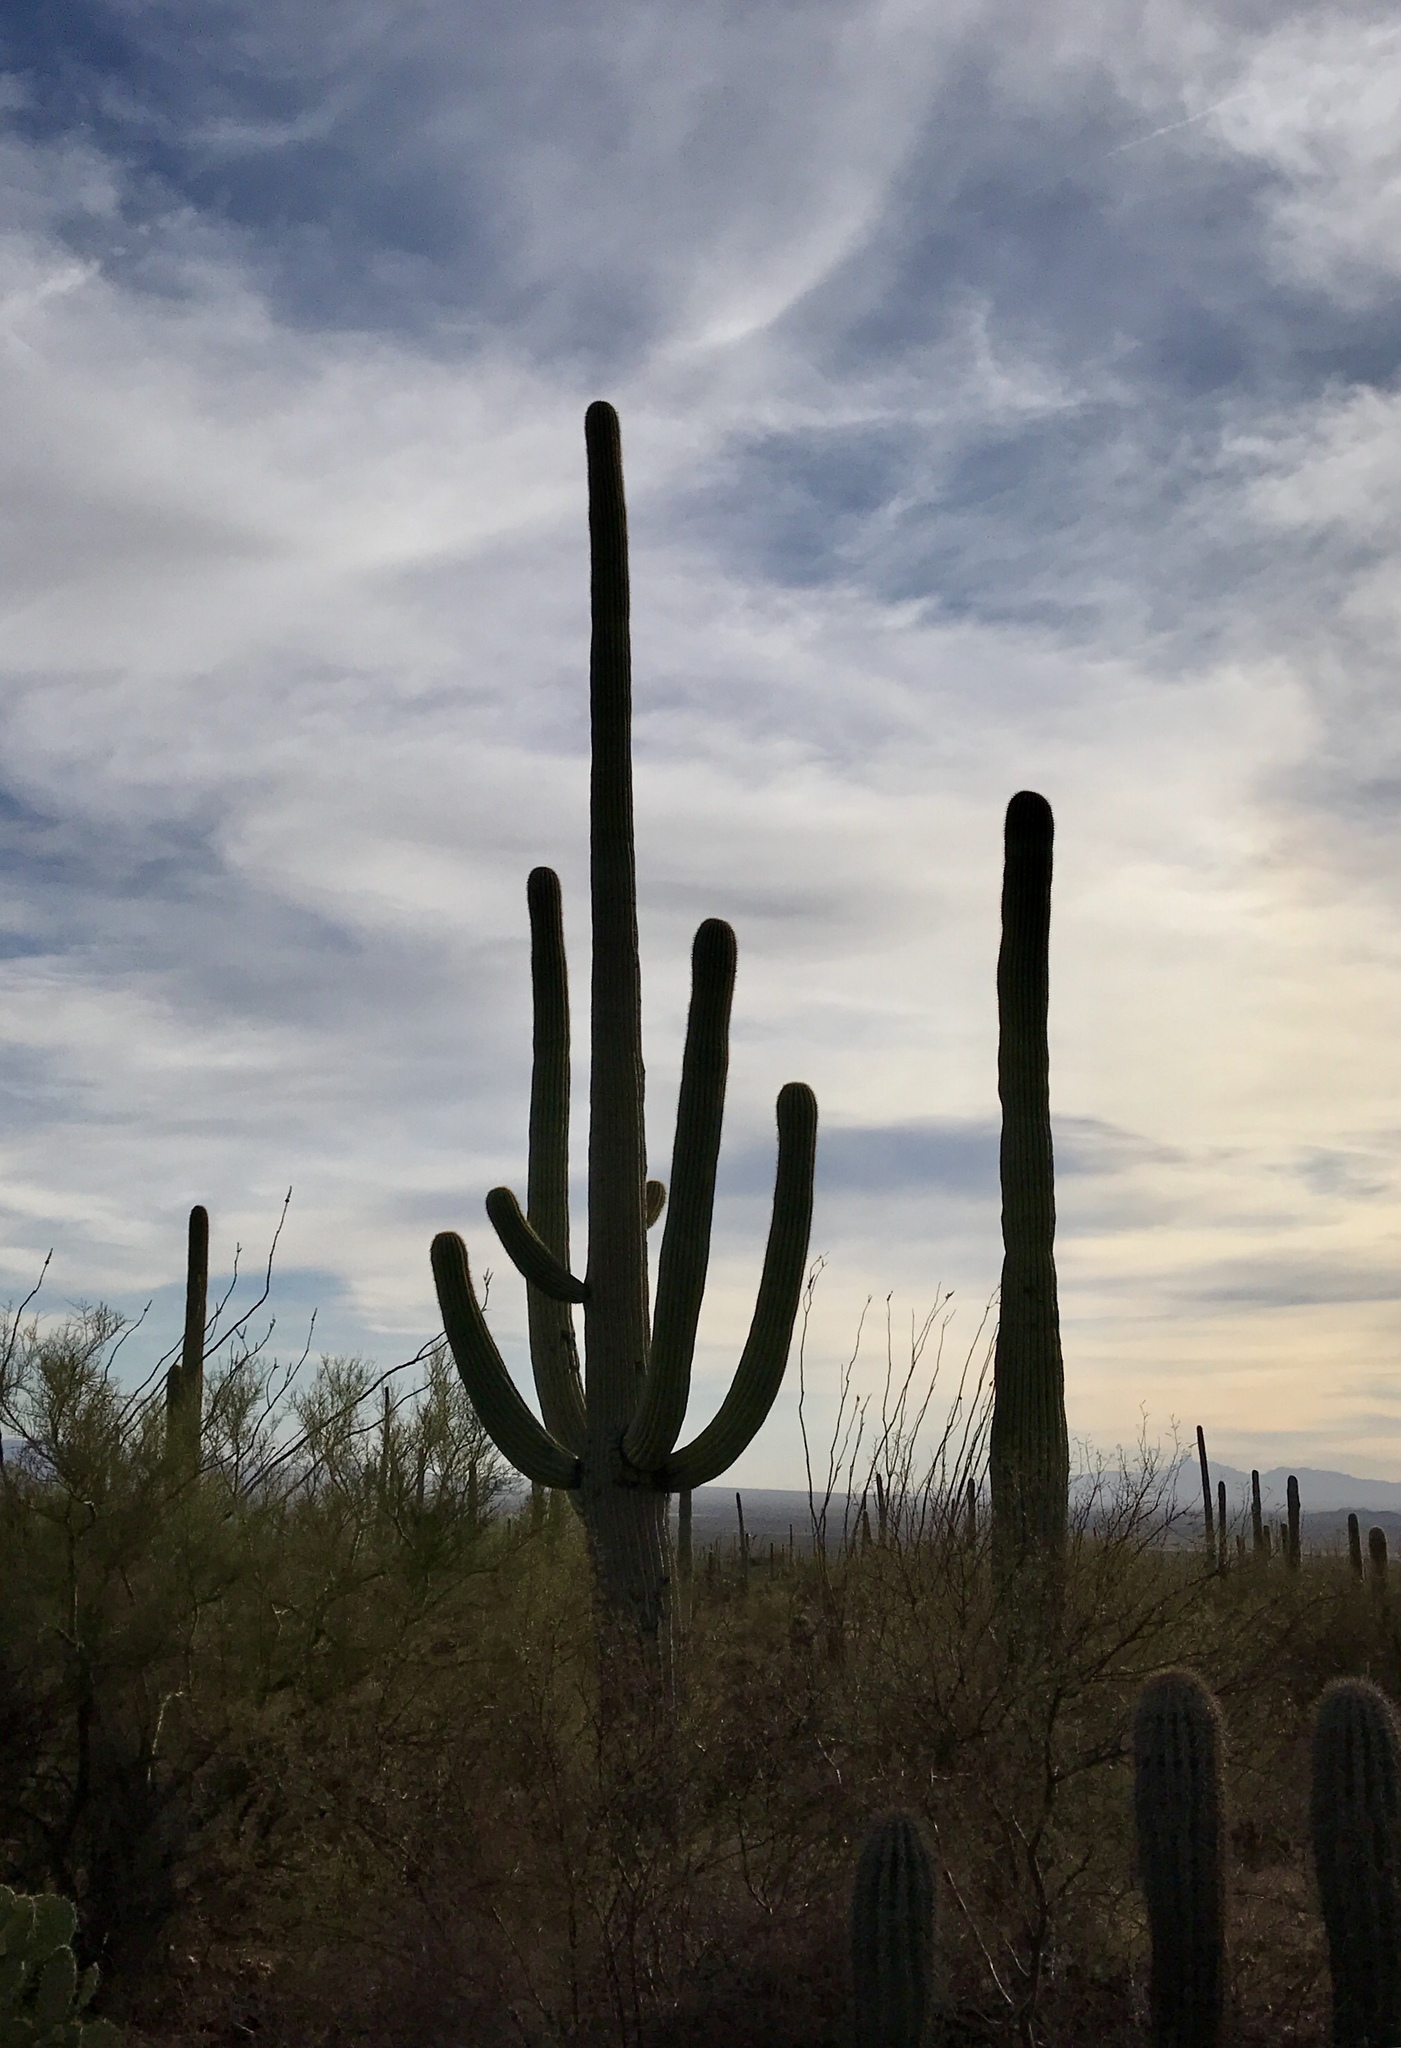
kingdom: Plantae
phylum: Tracheophyta
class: Magnoliopsida
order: Caryophyllales
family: Cactaceae
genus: Carnegiea
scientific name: Carnegiea gigantea
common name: Saguaro
